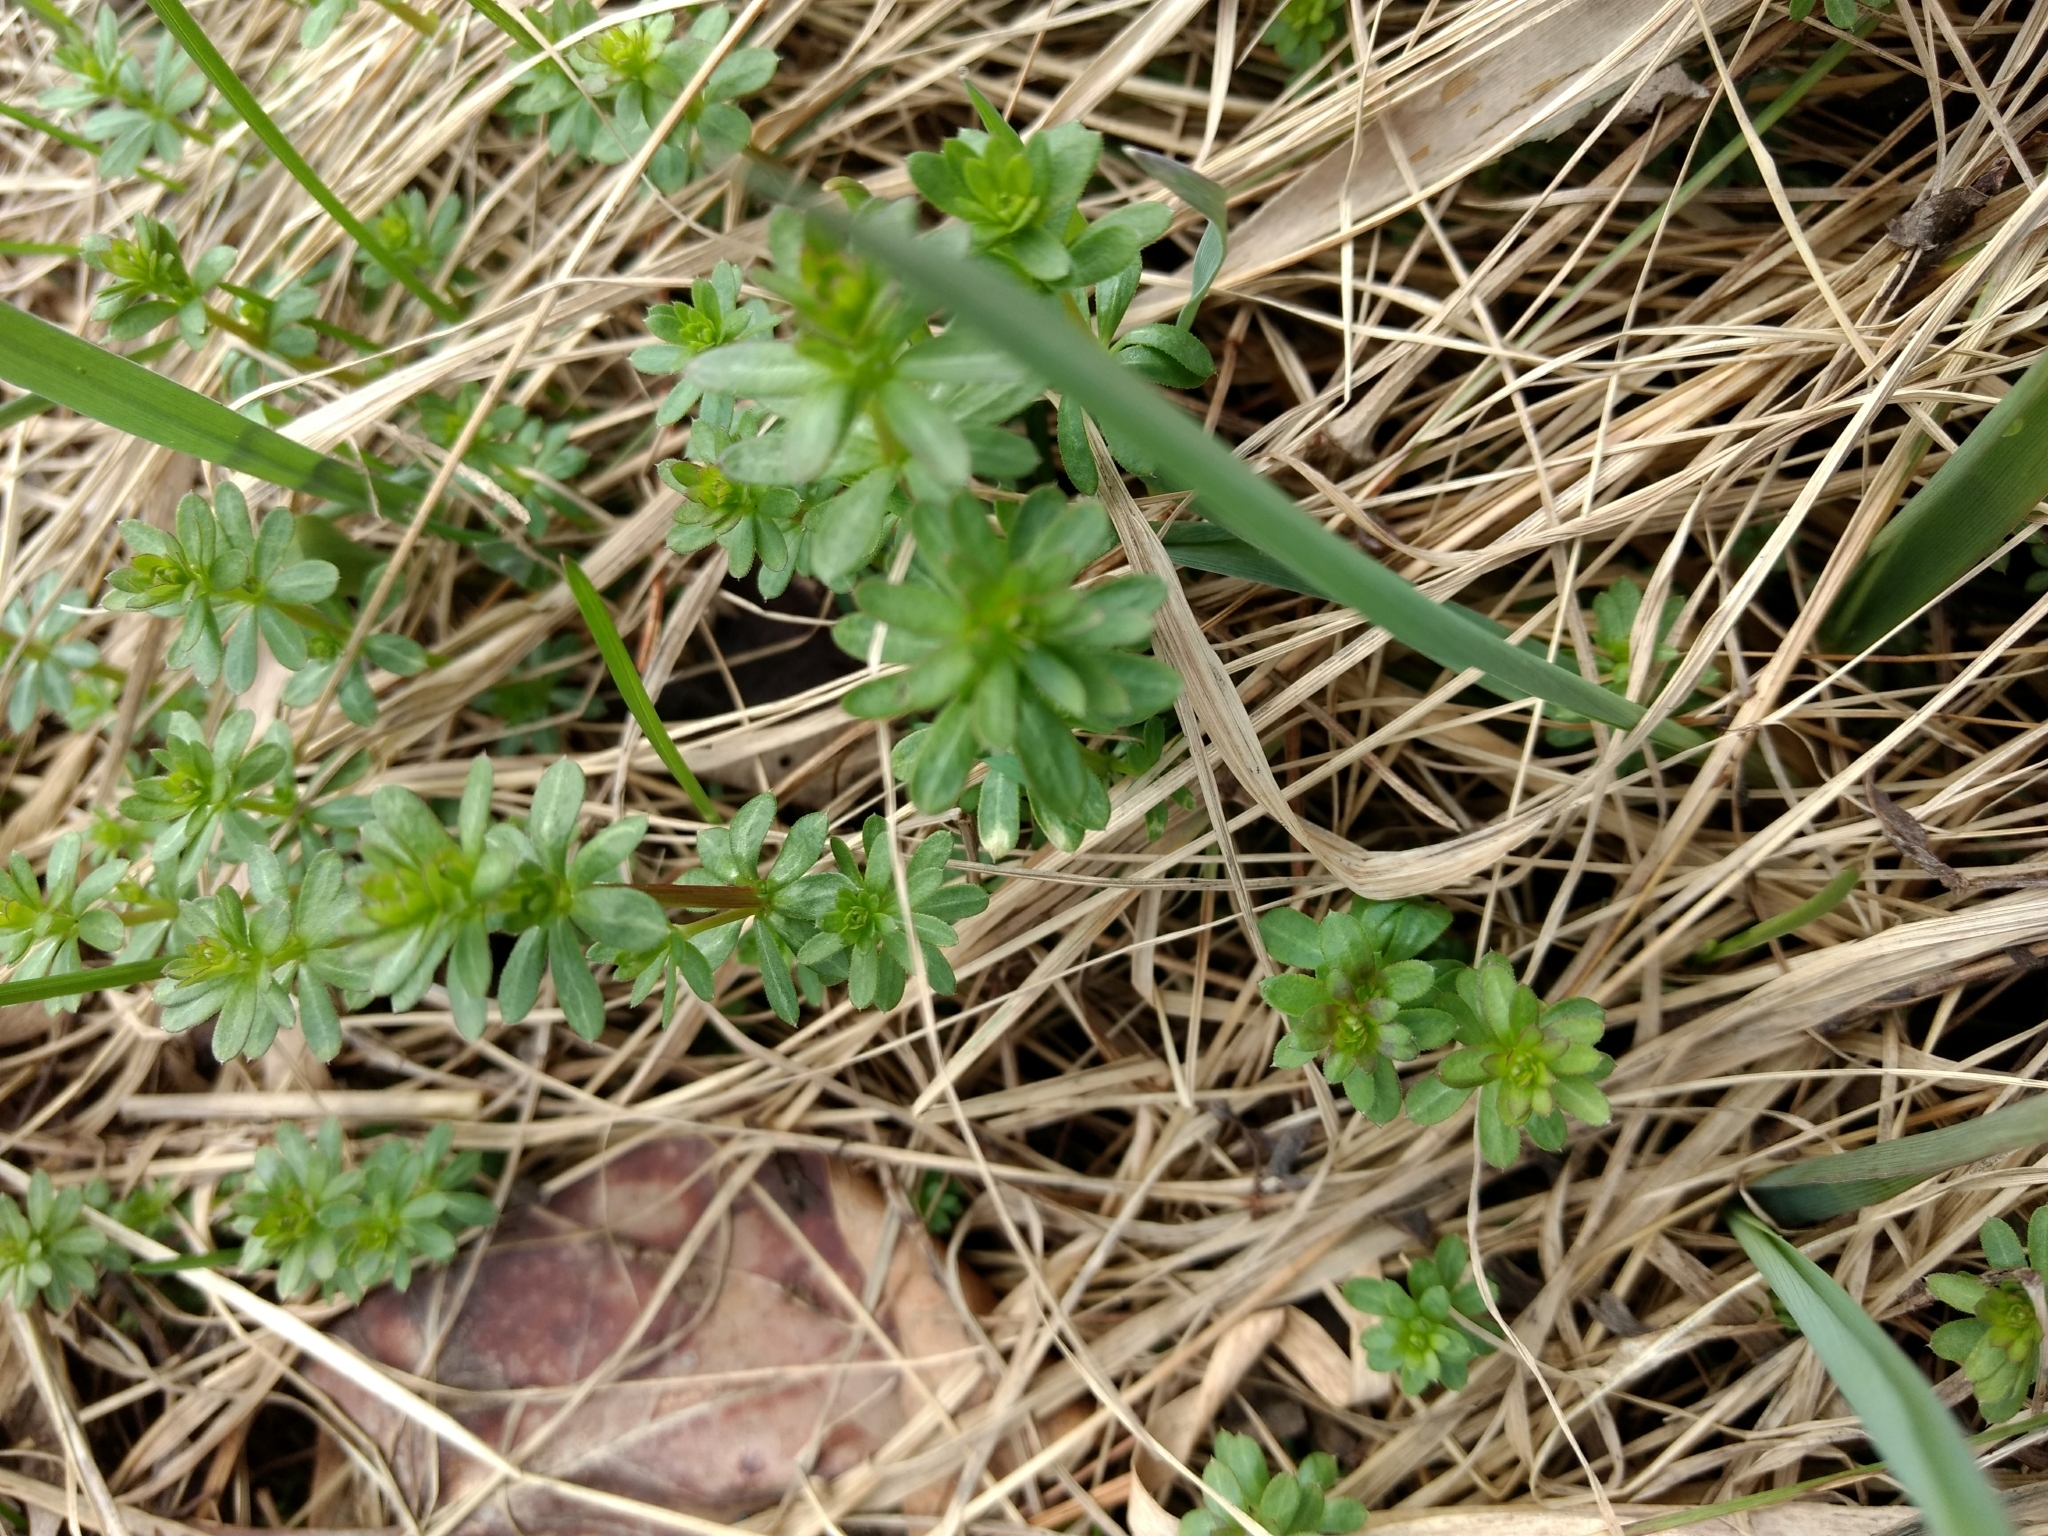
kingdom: Plantae
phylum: Tracheophyta
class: Magnoliopsida
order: Gentianales
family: Rubiaceae
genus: Galium
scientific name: Galium mollugo
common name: Hedge bedstraw
